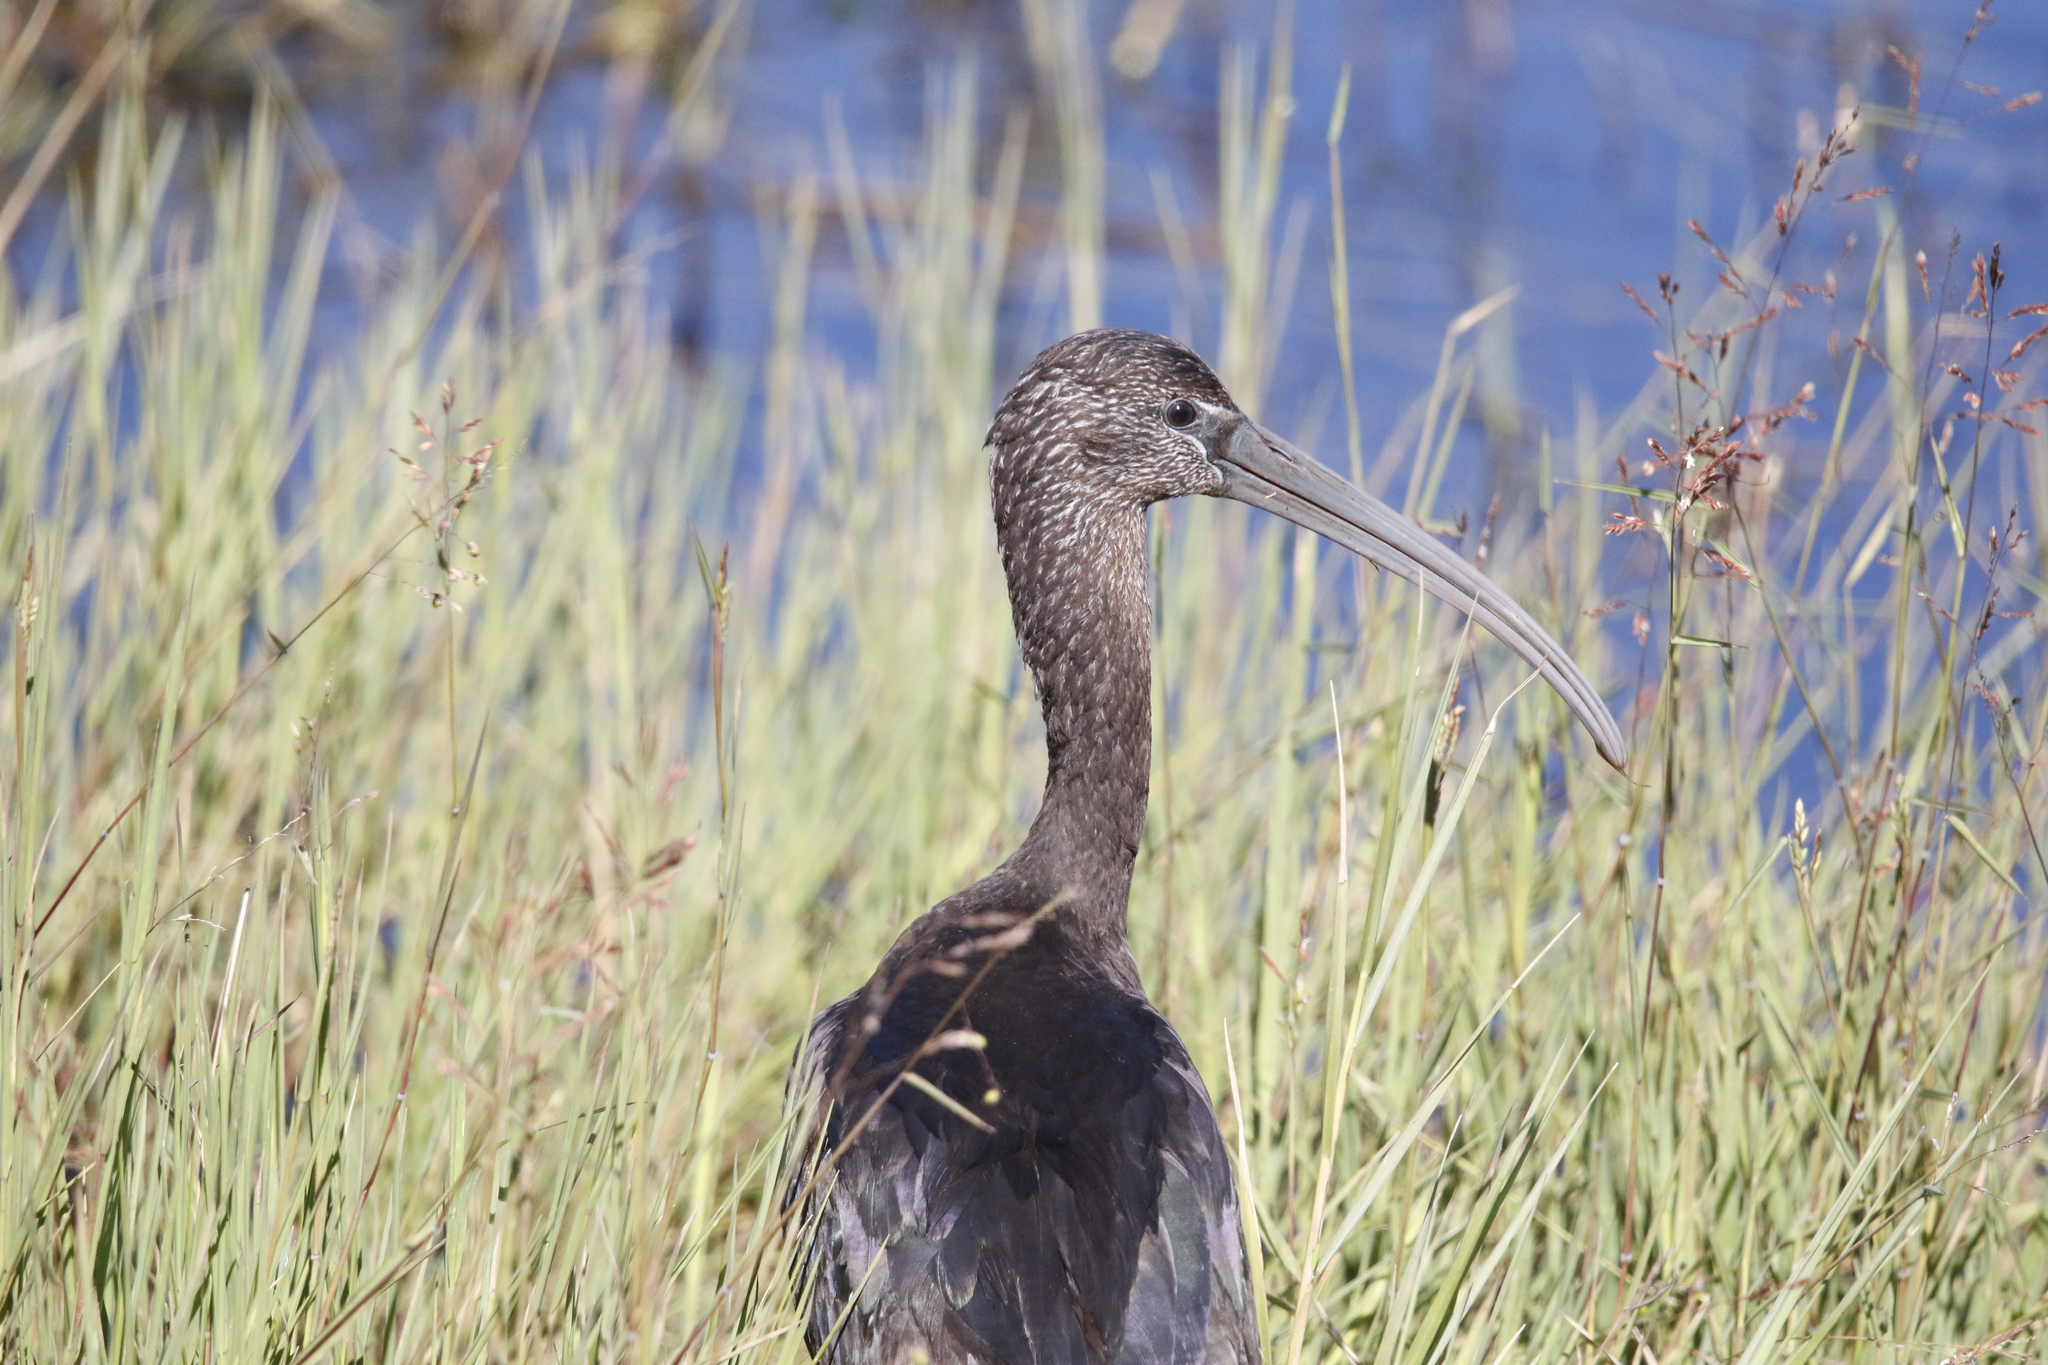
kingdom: Animalia
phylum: Chordata
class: Aves
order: Pelecaniformes
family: Threskiornithidae
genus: Plegadis
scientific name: Plegadis falcinellus
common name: Glossy ibis
